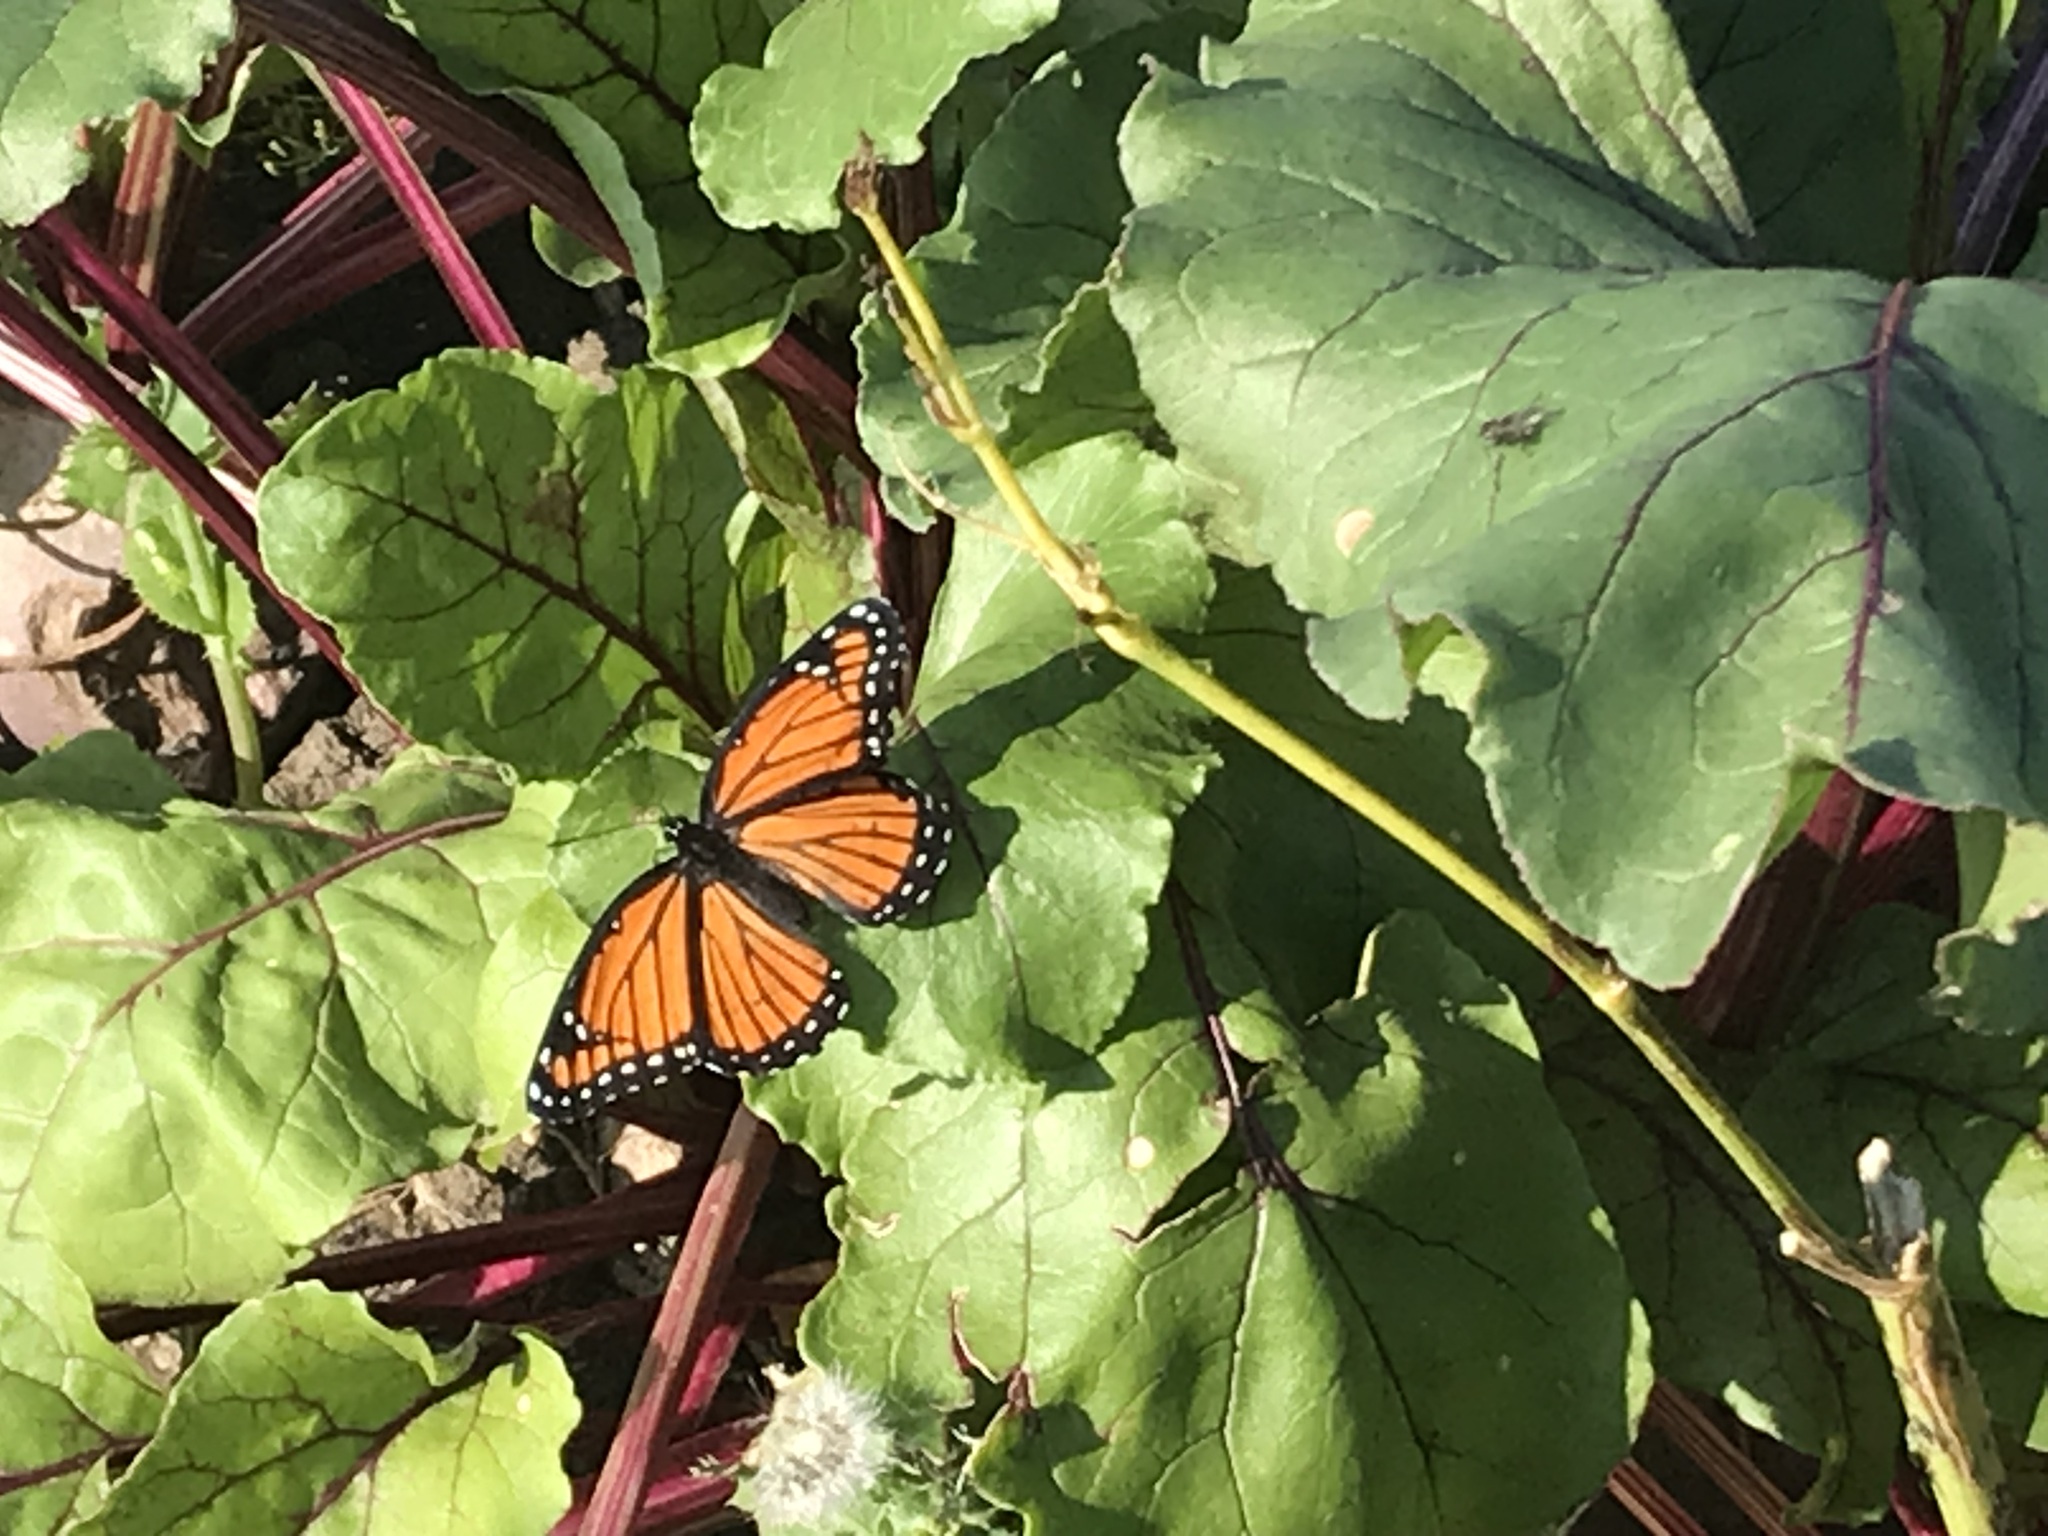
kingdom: Animalia
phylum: Arthropoda
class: Insecta
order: Lepidoptera
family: Nymphalidae
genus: Limenitis
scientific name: Limenitis archippus
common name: Viceroy
